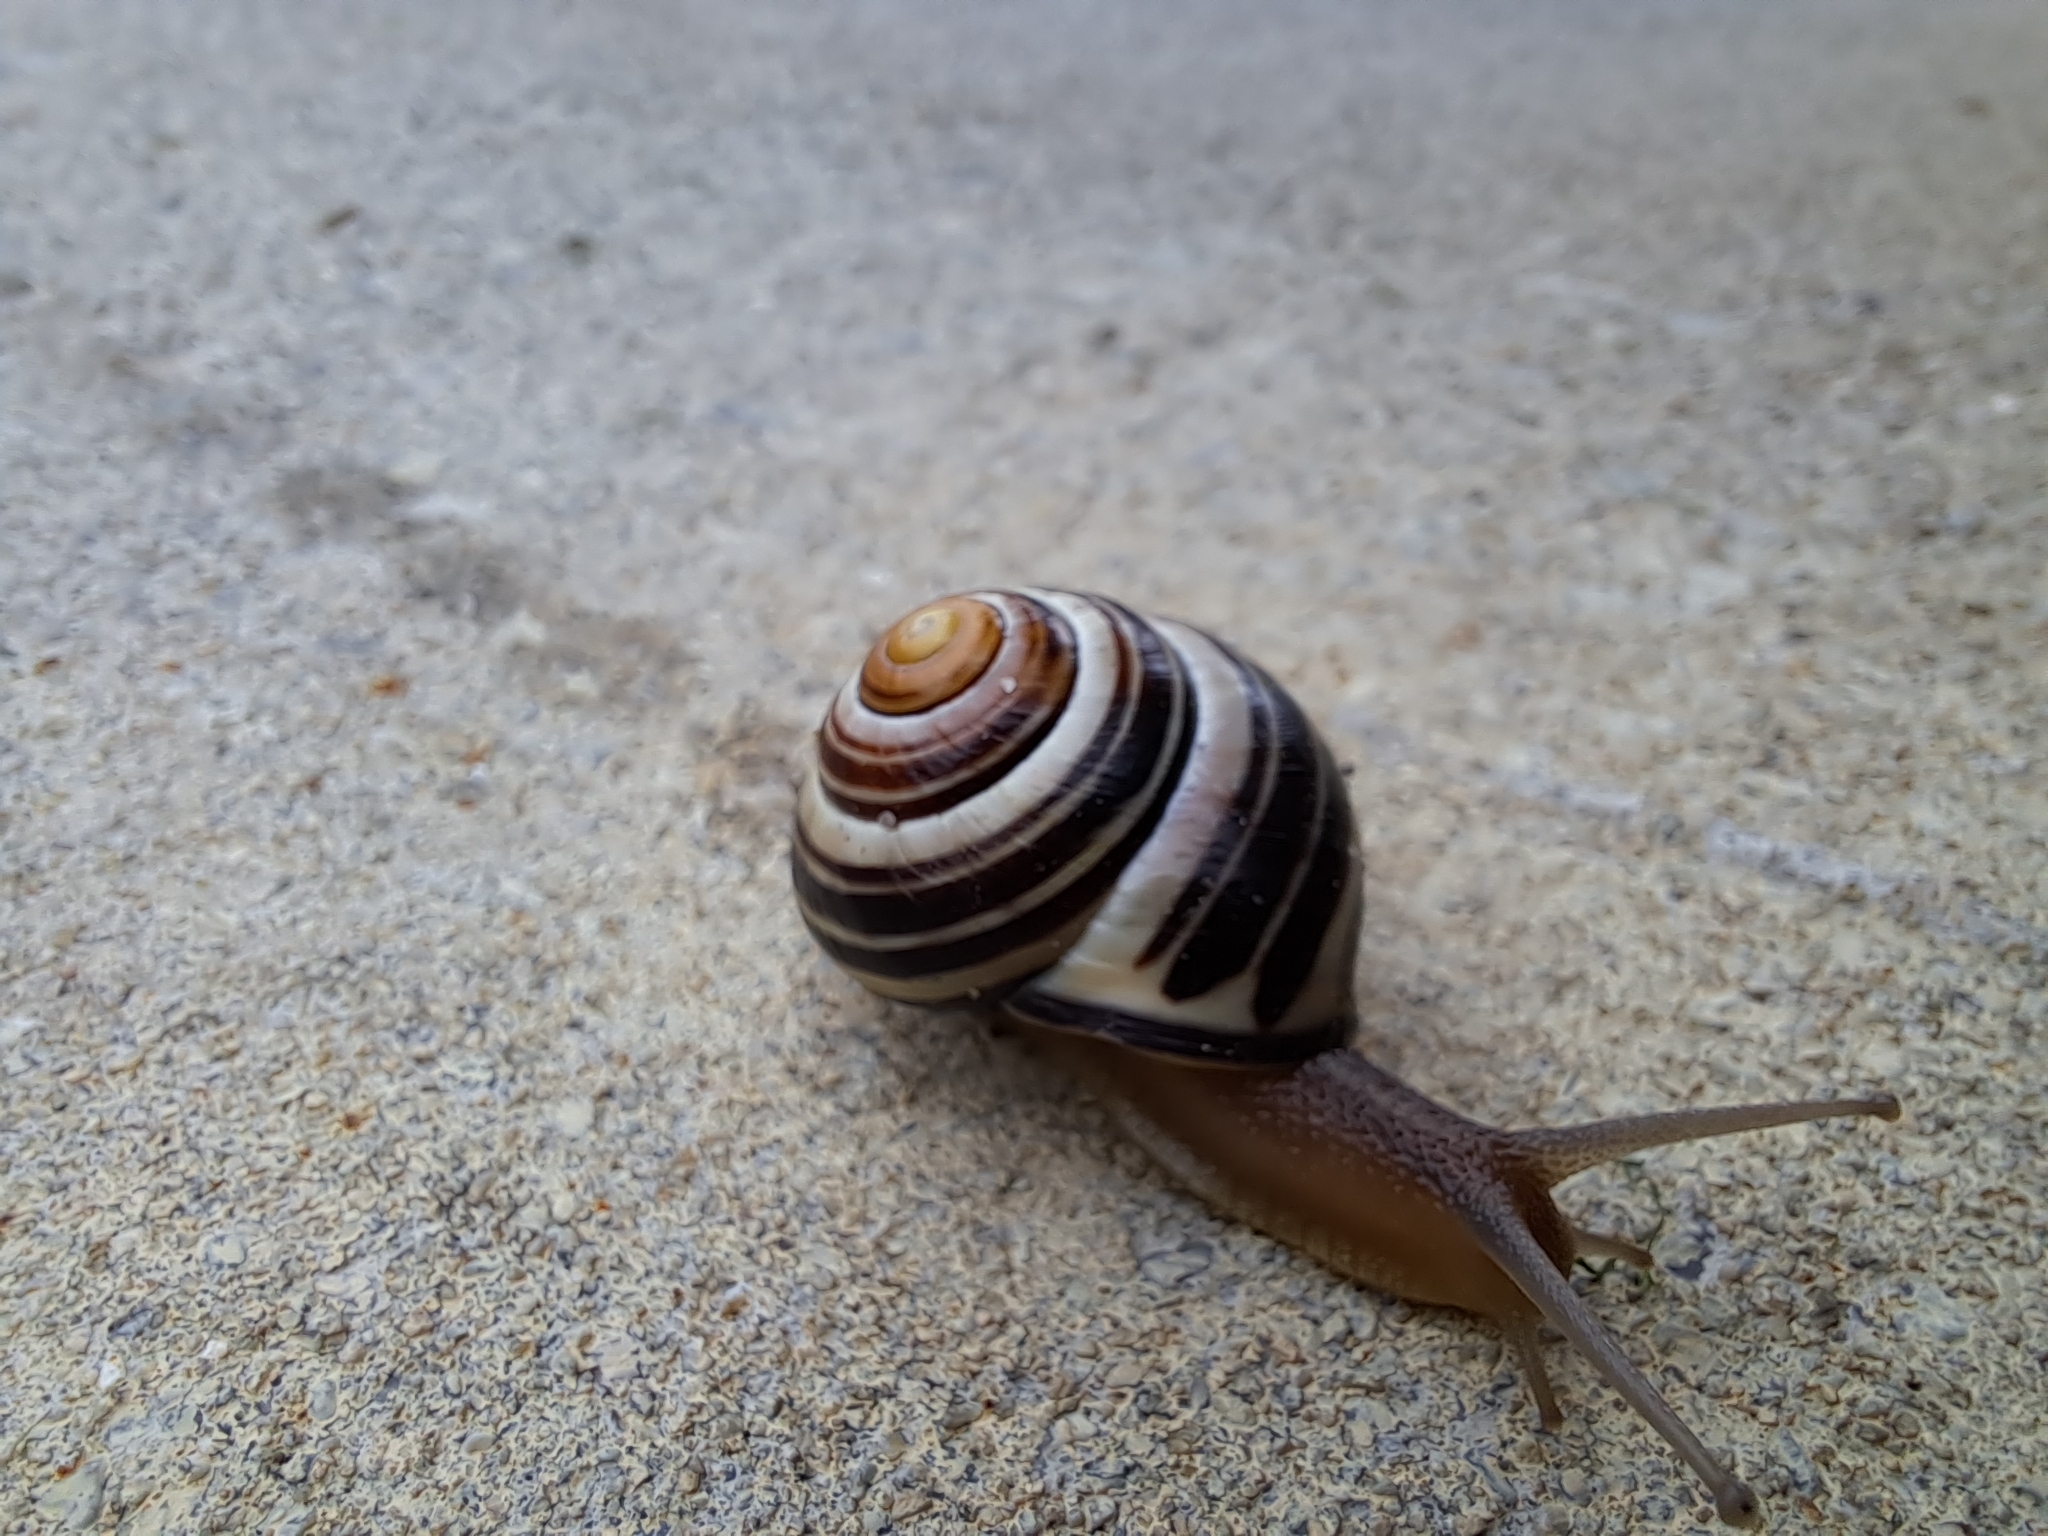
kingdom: Animalia
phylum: Mollusca
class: Gastropoda
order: Stylommatophora
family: Helicidae
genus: Cepaea
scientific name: Cepaea nemoralis
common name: Grovesnail
